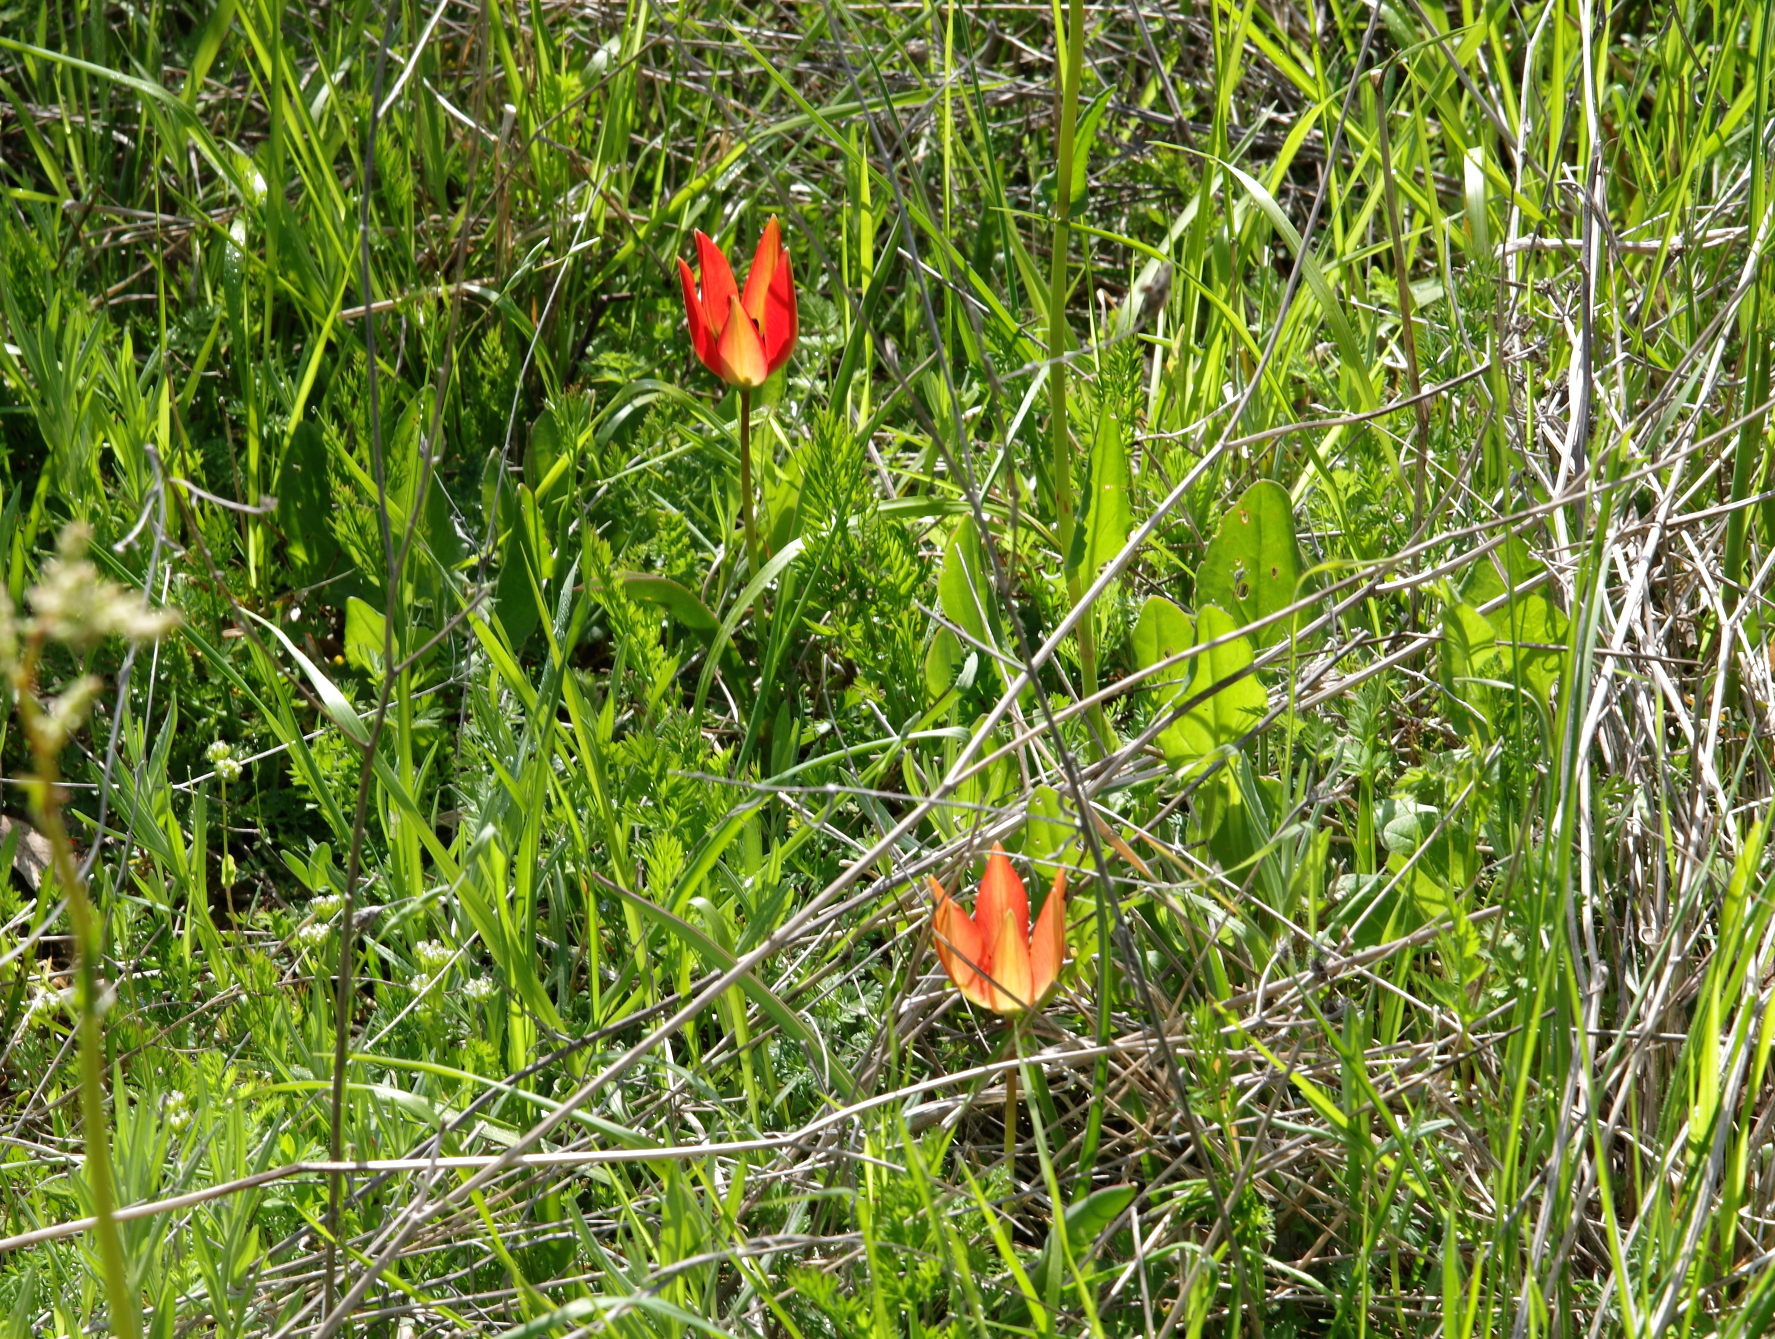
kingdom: Plantae
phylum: Tracheophyta
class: Liliopsida
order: Liliales
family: Liliaceae
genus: Tulipa
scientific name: Tulipa orphanidea
